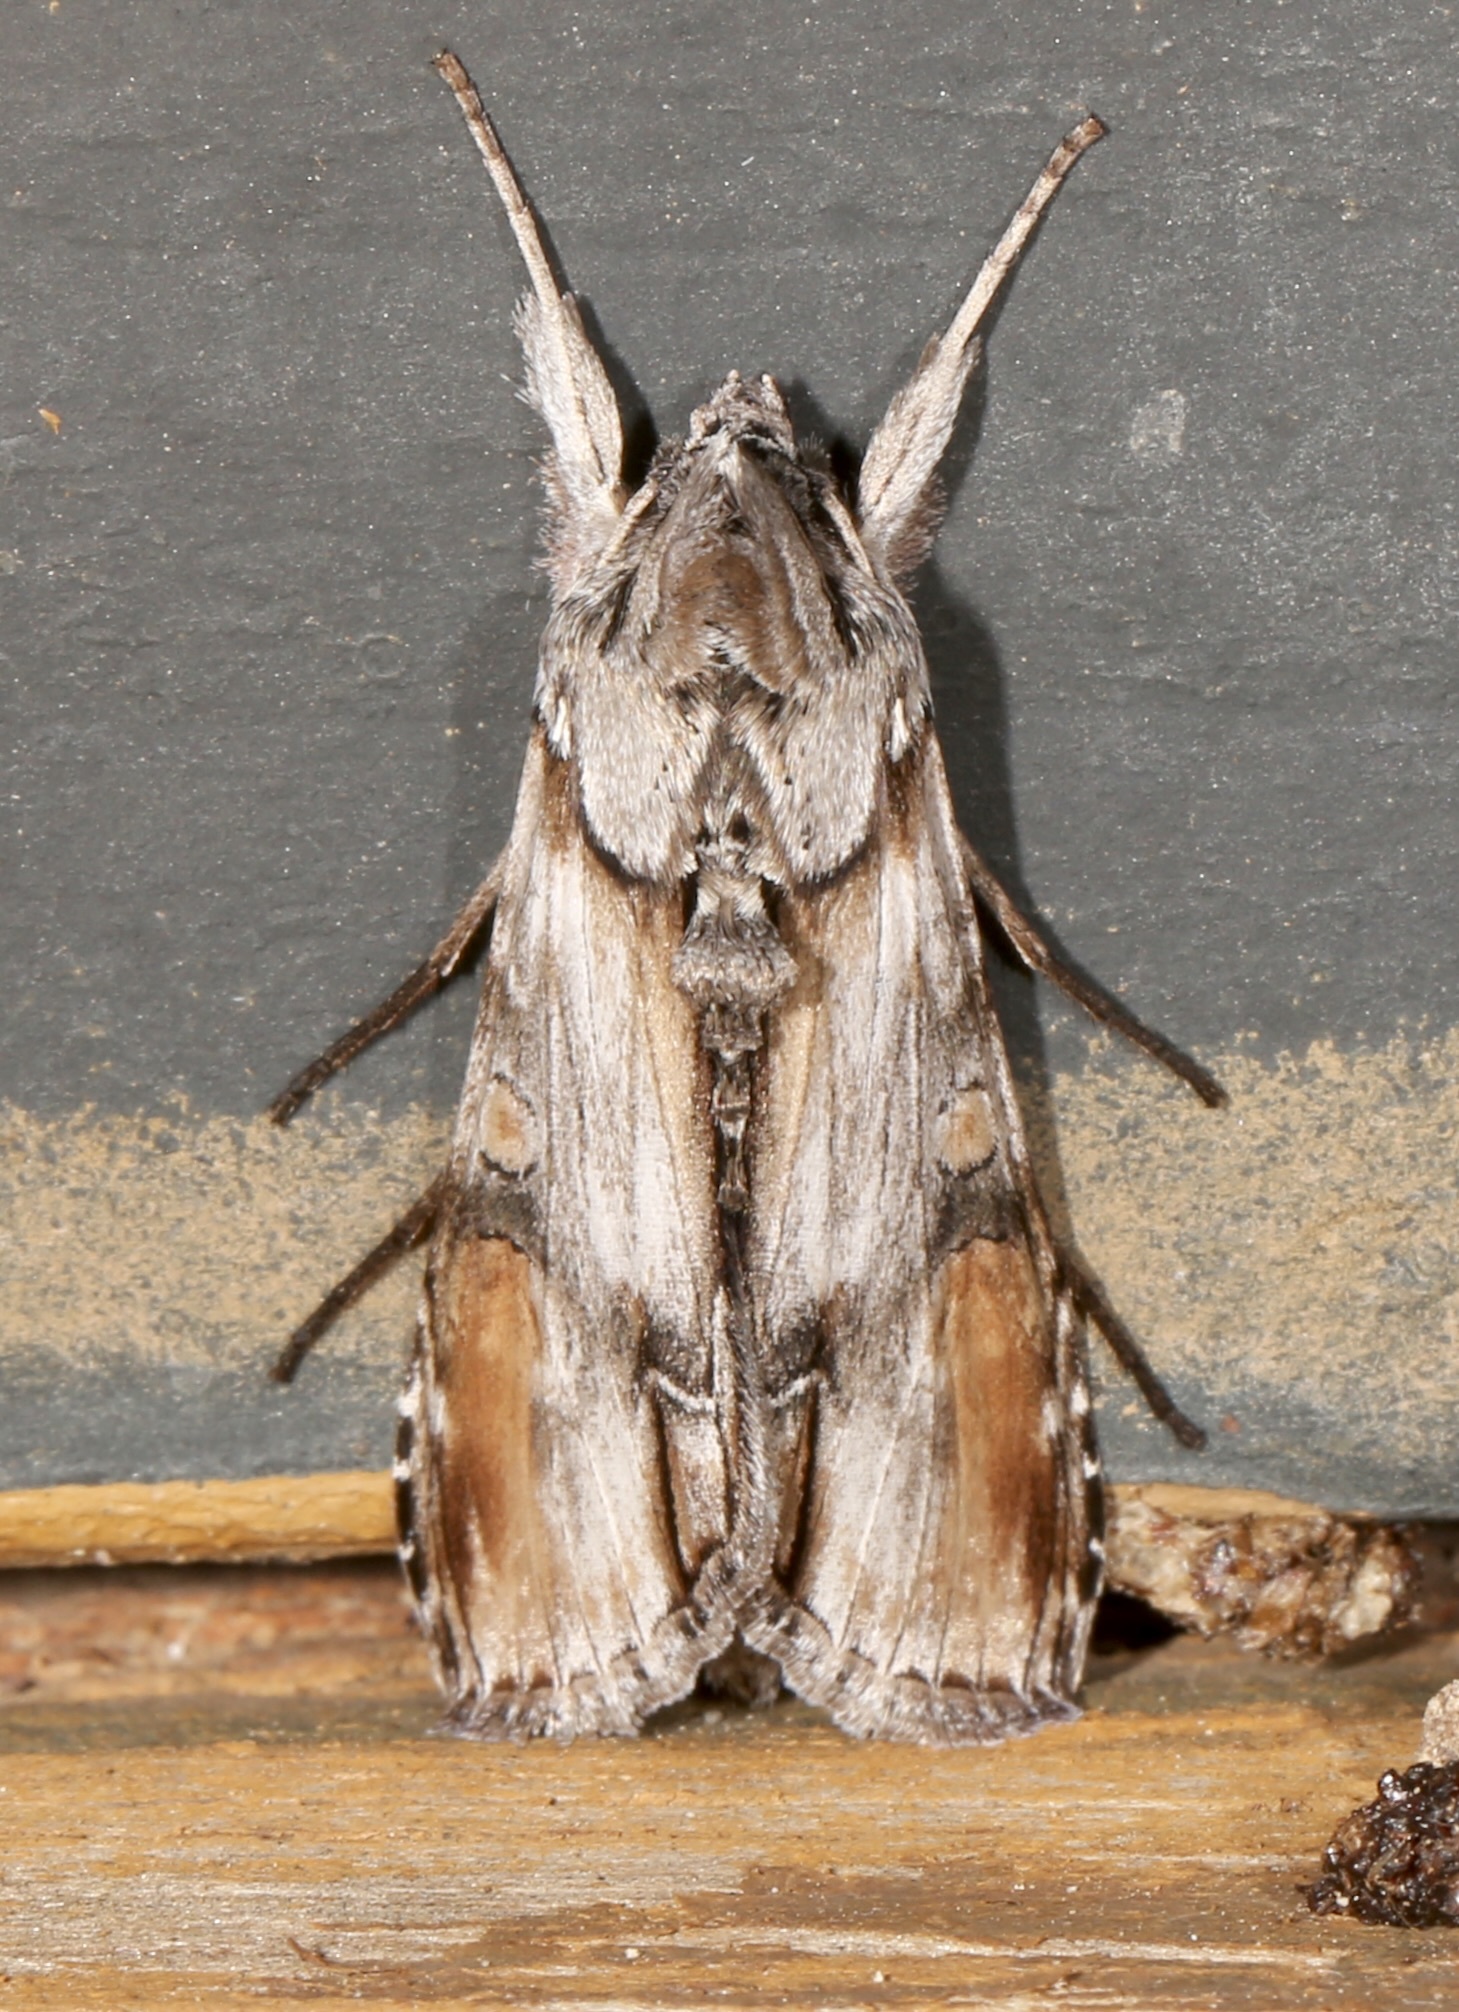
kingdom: Animalia
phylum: Arthropoda
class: Insecta
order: Lepidoptera
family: Noctuidae
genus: Cucullia
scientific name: Cucullia lilacina
